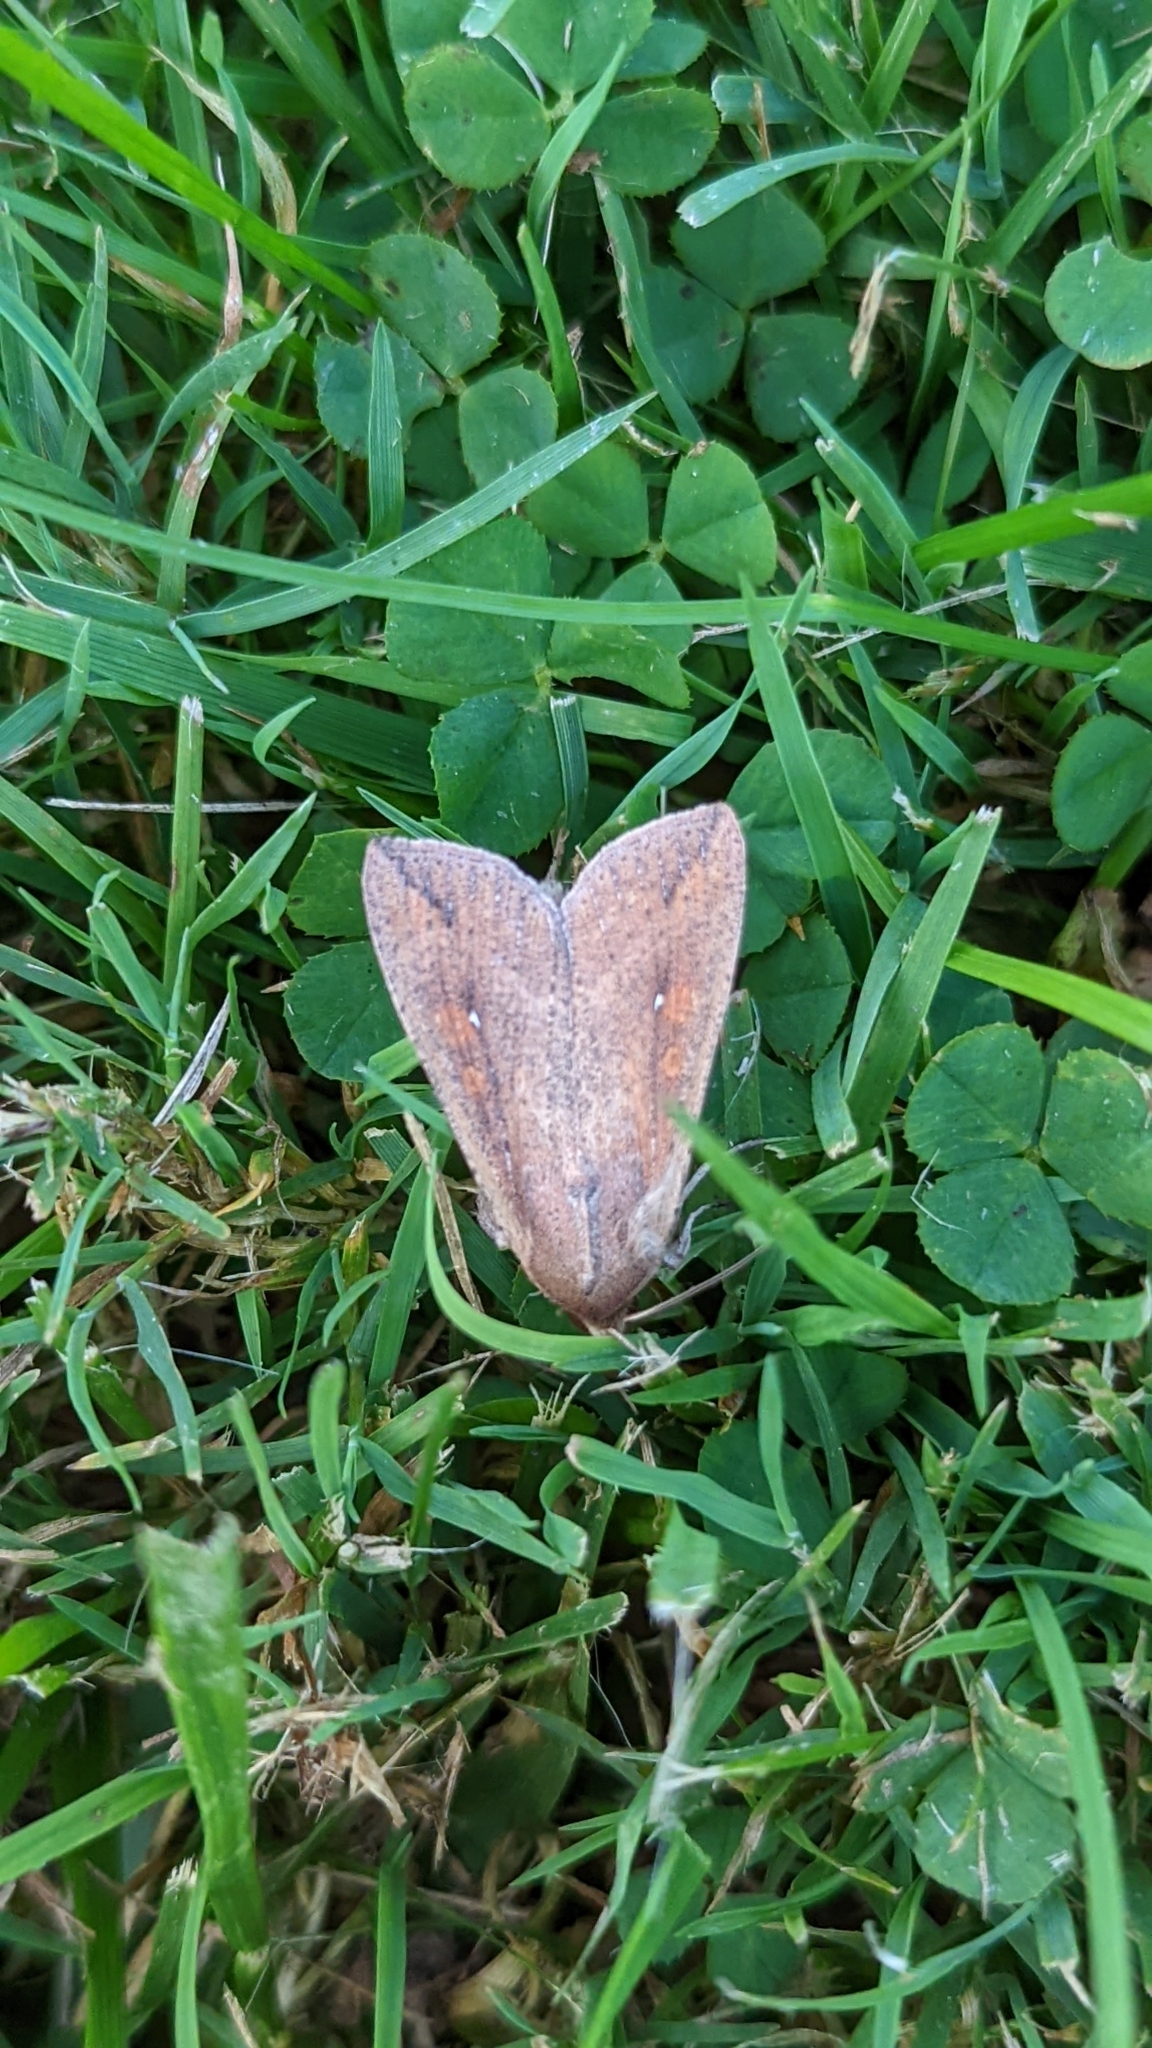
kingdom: Animalia
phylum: Arthropoda
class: Insecta
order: Lepidoptera
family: Noctuidae
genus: Mythimna
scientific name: Mythimna unipuncta
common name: White-speck
